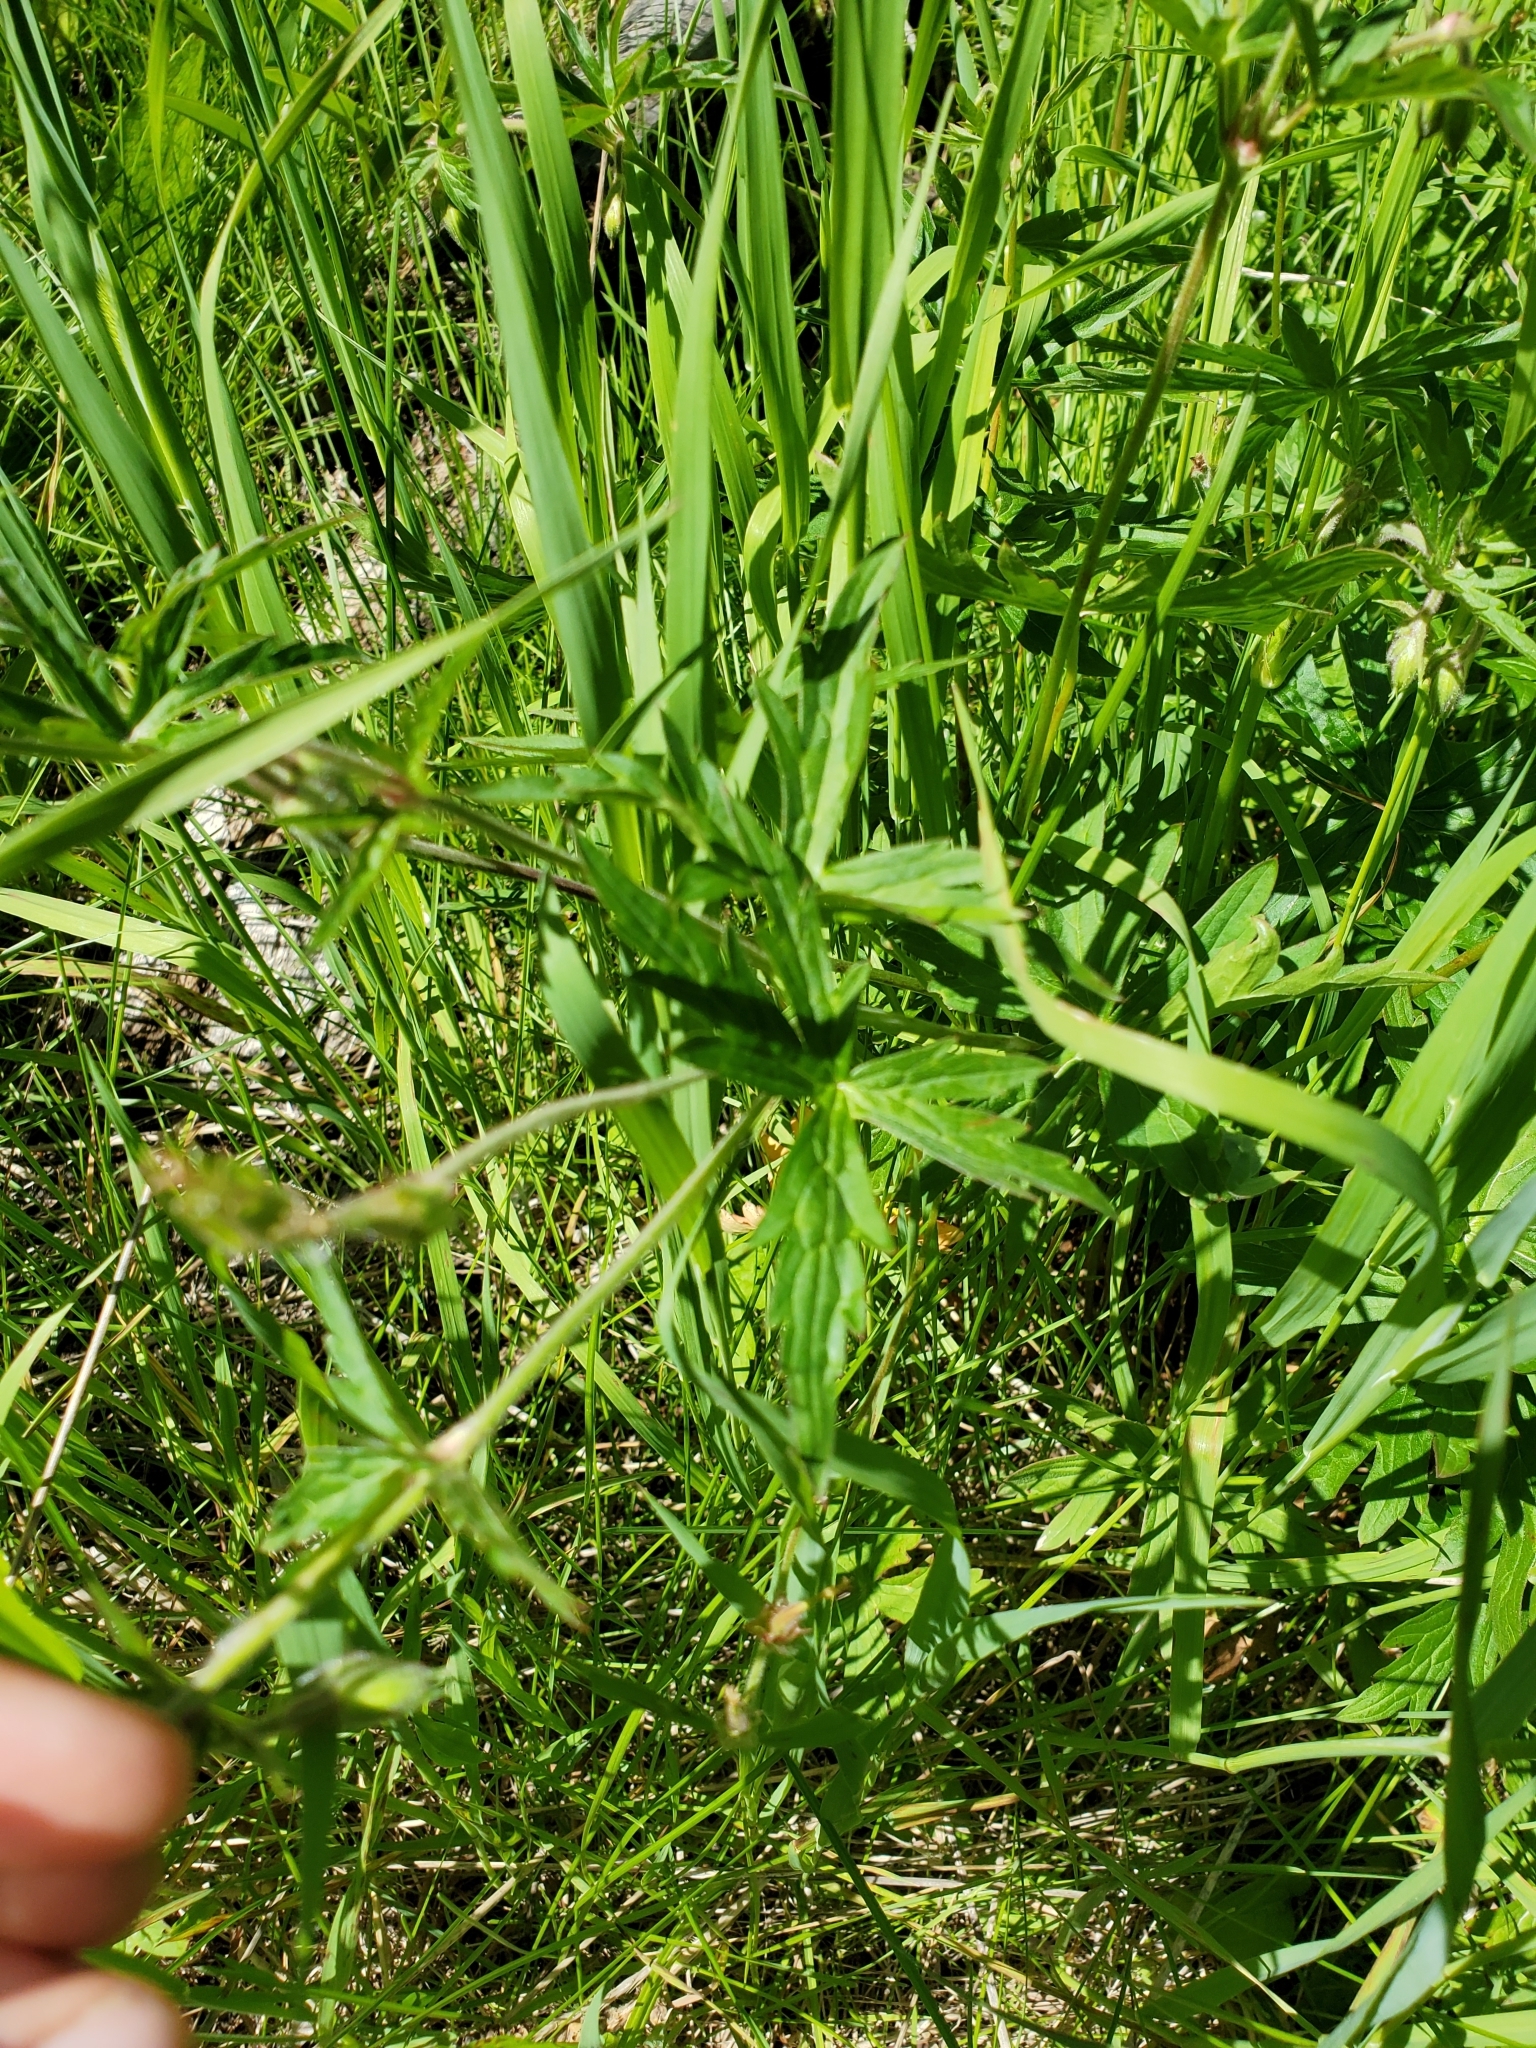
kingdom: Plantae
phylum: Tracheophyta
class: Magnoliopsida
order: Geraniales
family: Geraniaceae
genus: Geranium
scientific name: Geranium richardsonii
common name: Richardson's crane's-bill
